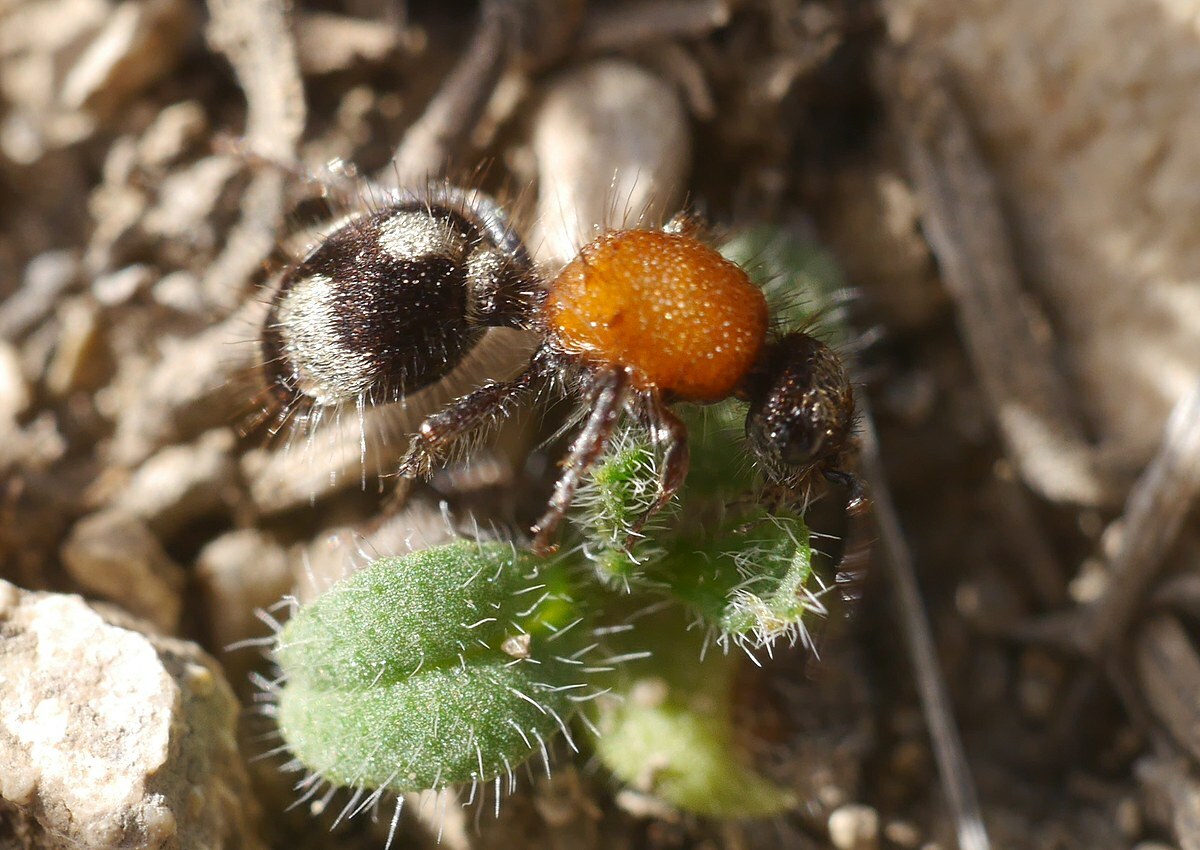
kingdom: Animalia
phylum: Arthropoda
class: Insecta
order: Hymenoptera
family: Mutillidae
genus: Dasylabris
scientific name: Dasylabris maura
